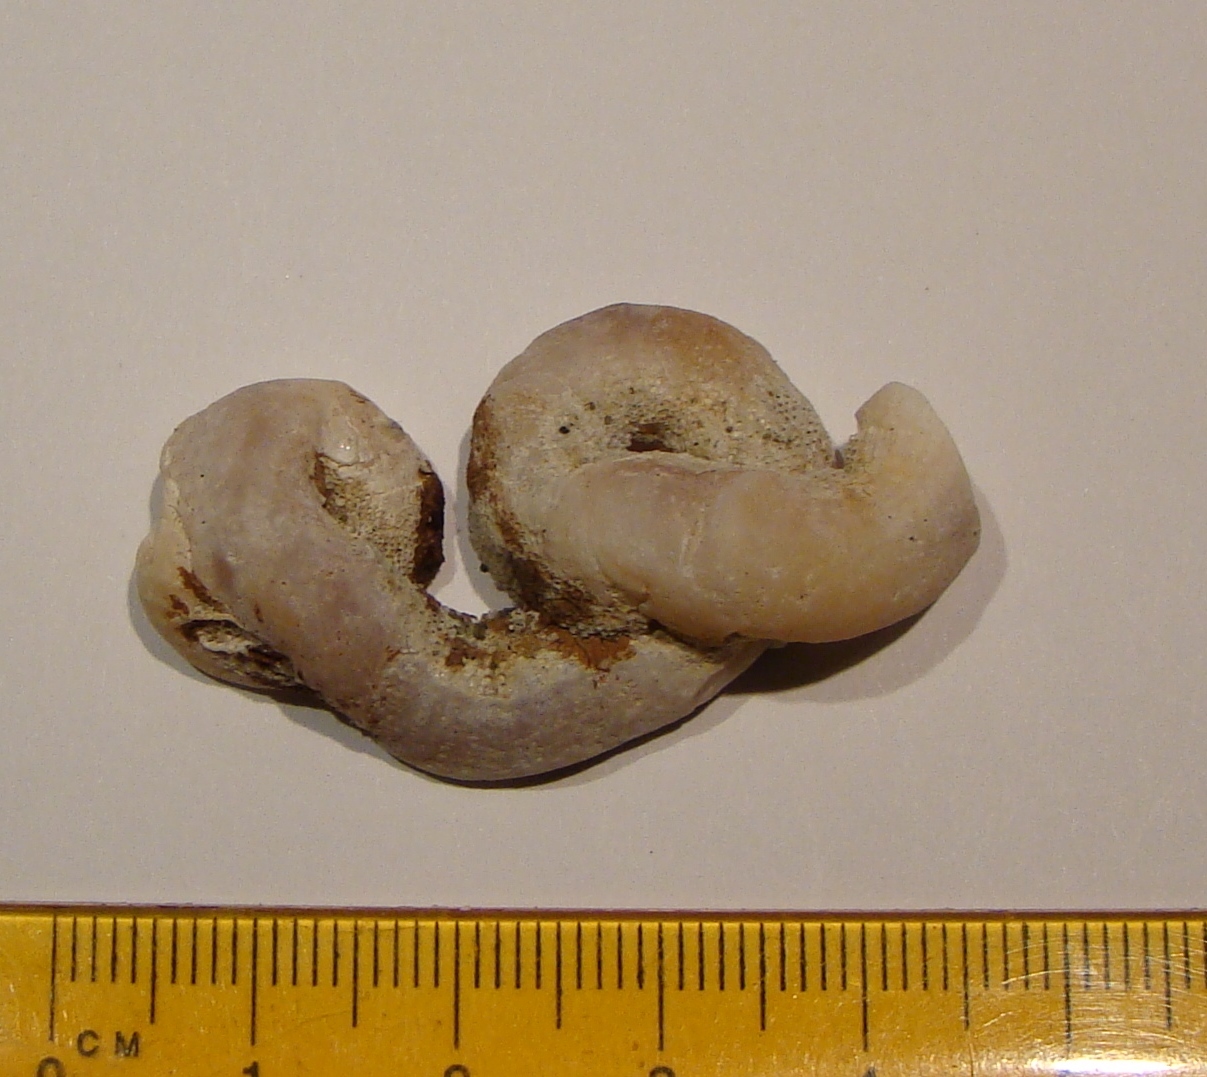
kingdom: Animalia
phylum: Mollusca
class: Gastropoda
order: Littorinimorpha
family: Vermetidae
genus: Thylacodes
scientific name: Thylacodes zelandicus
